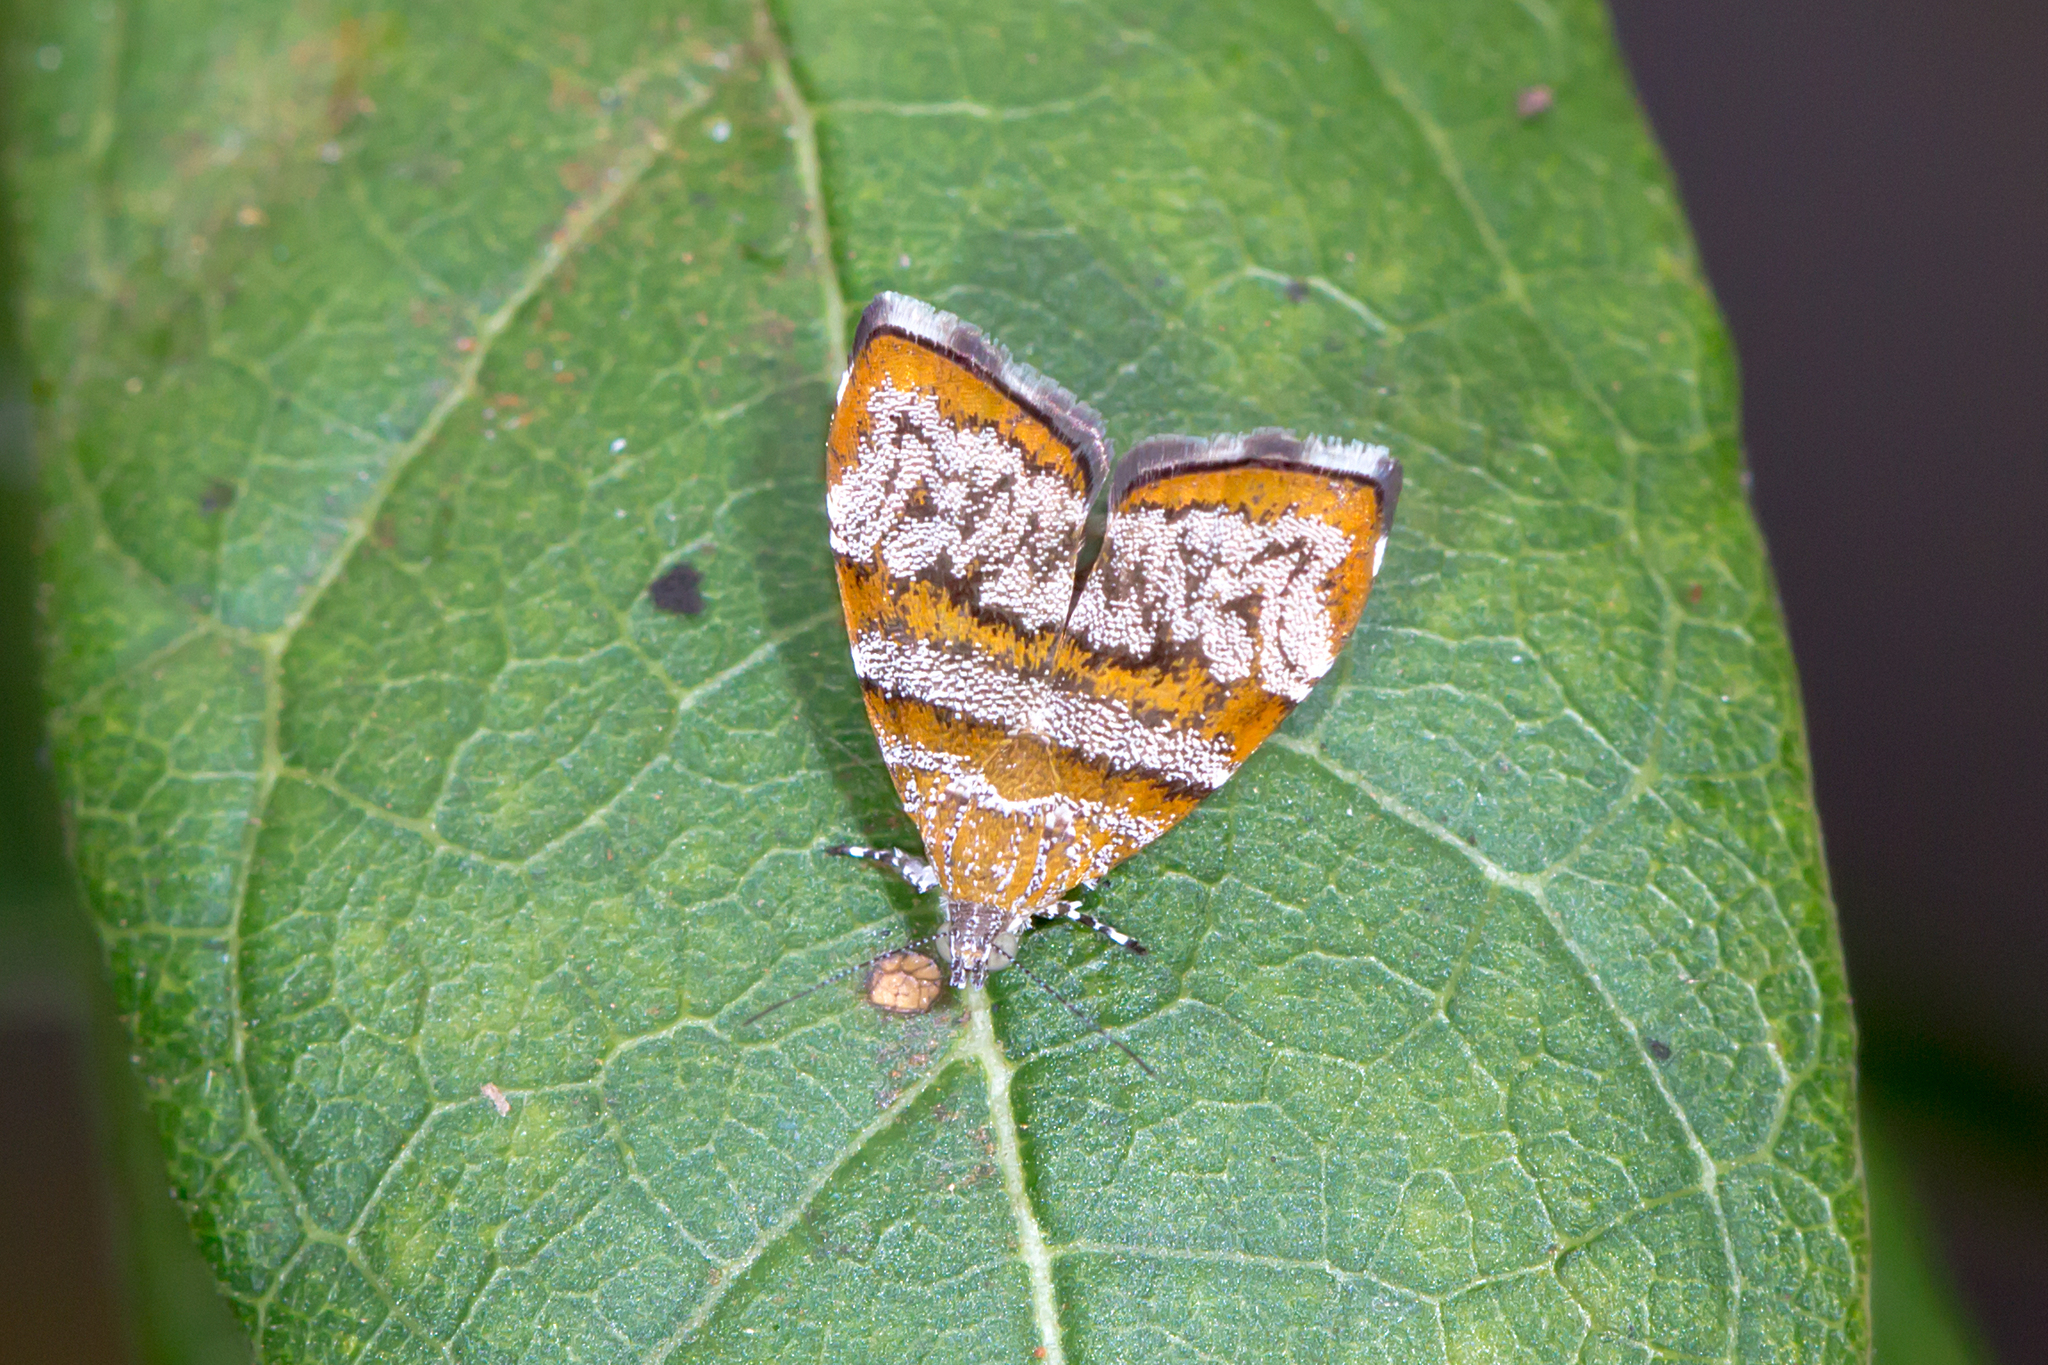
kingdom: Animalia
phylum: Arthropoda
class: Insecta
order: Lepidoptera
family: Choreutidae
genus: Choreutis
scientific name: Choreutis periploca
